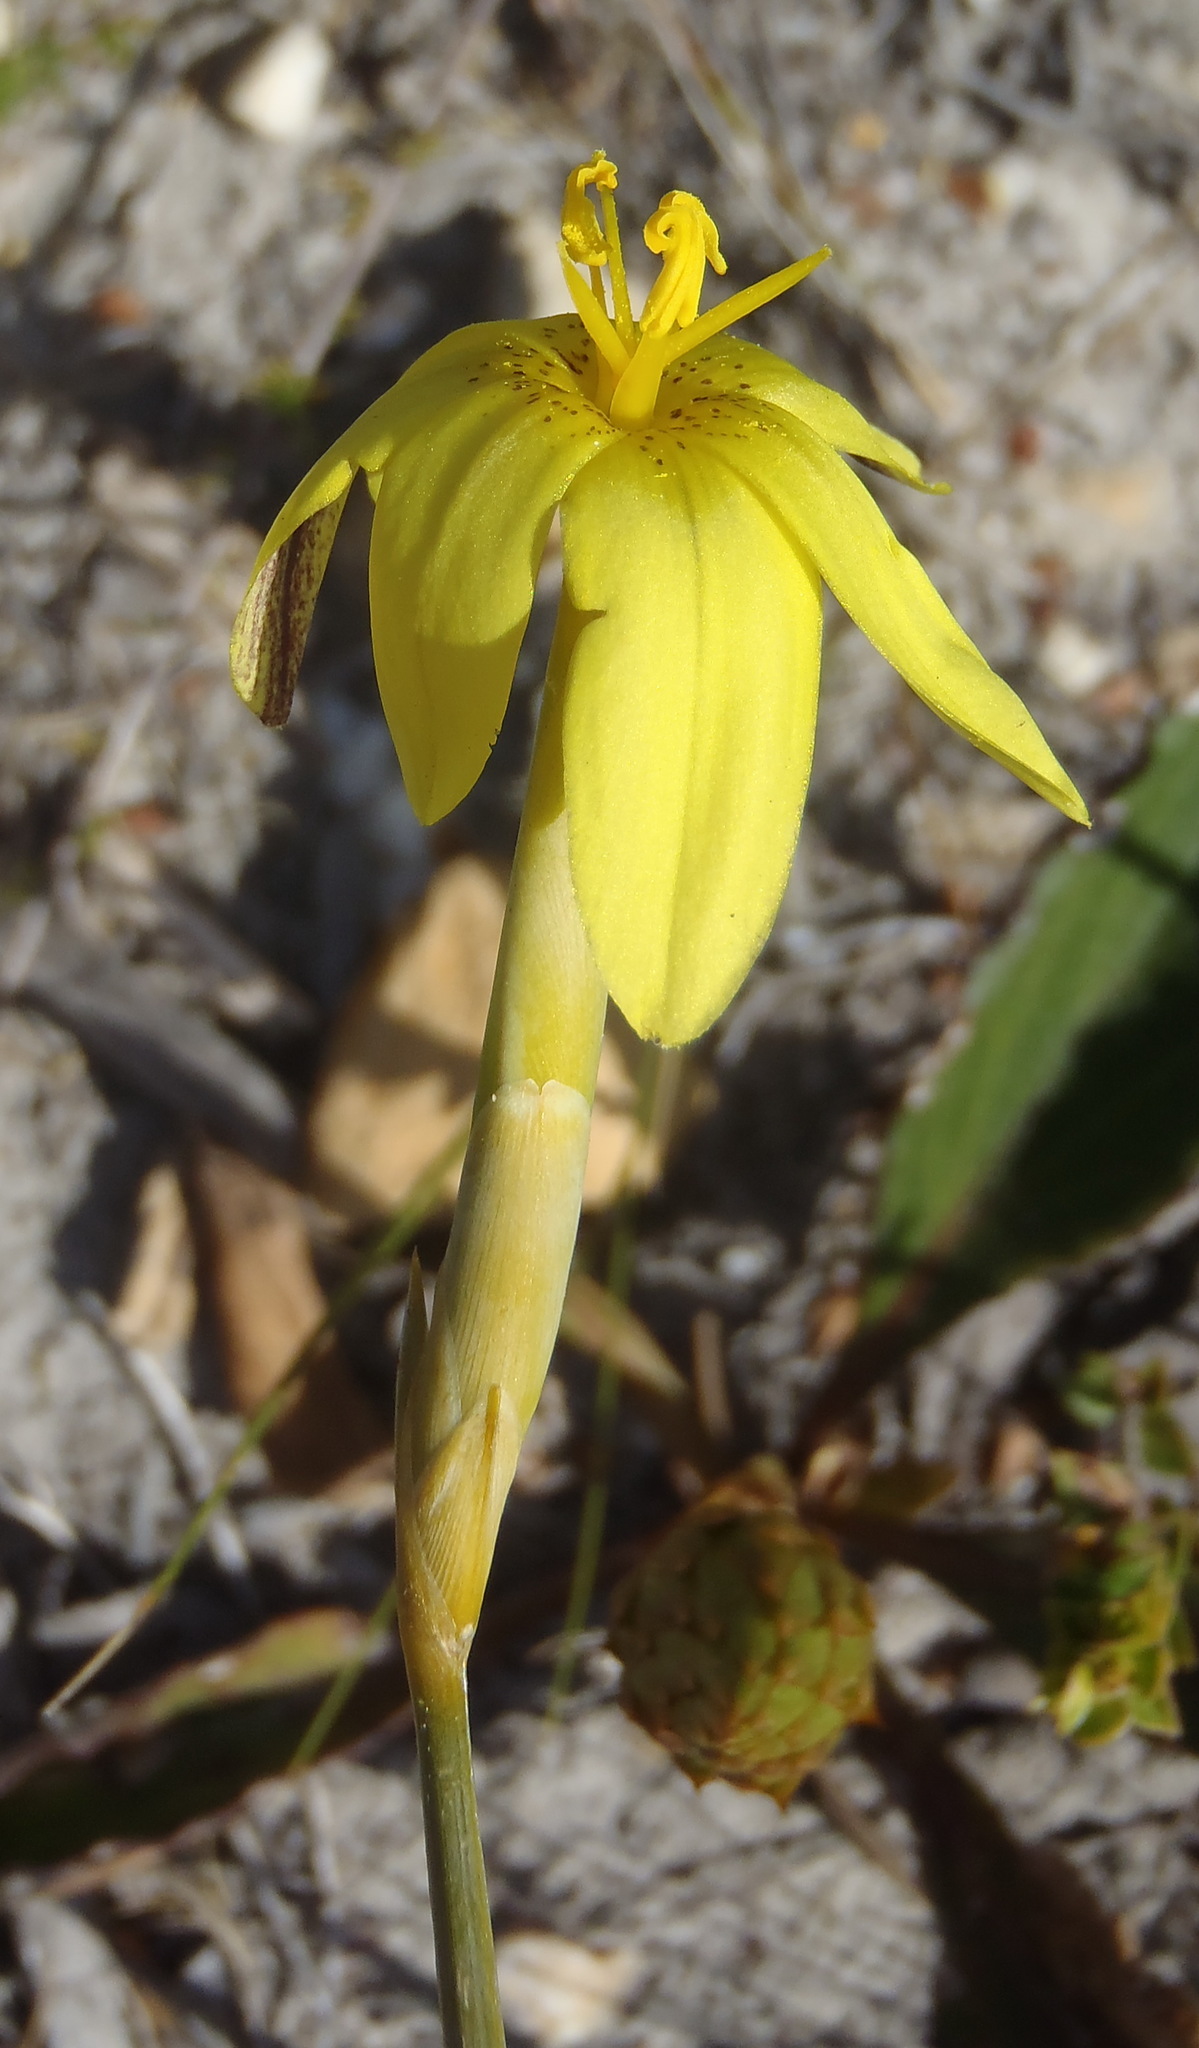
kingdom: Plantae
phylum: Tracheophyta
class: Liliopsida
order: Asparagales
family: Iridaceae
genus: Moraea
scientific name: Moraea lewisiae
